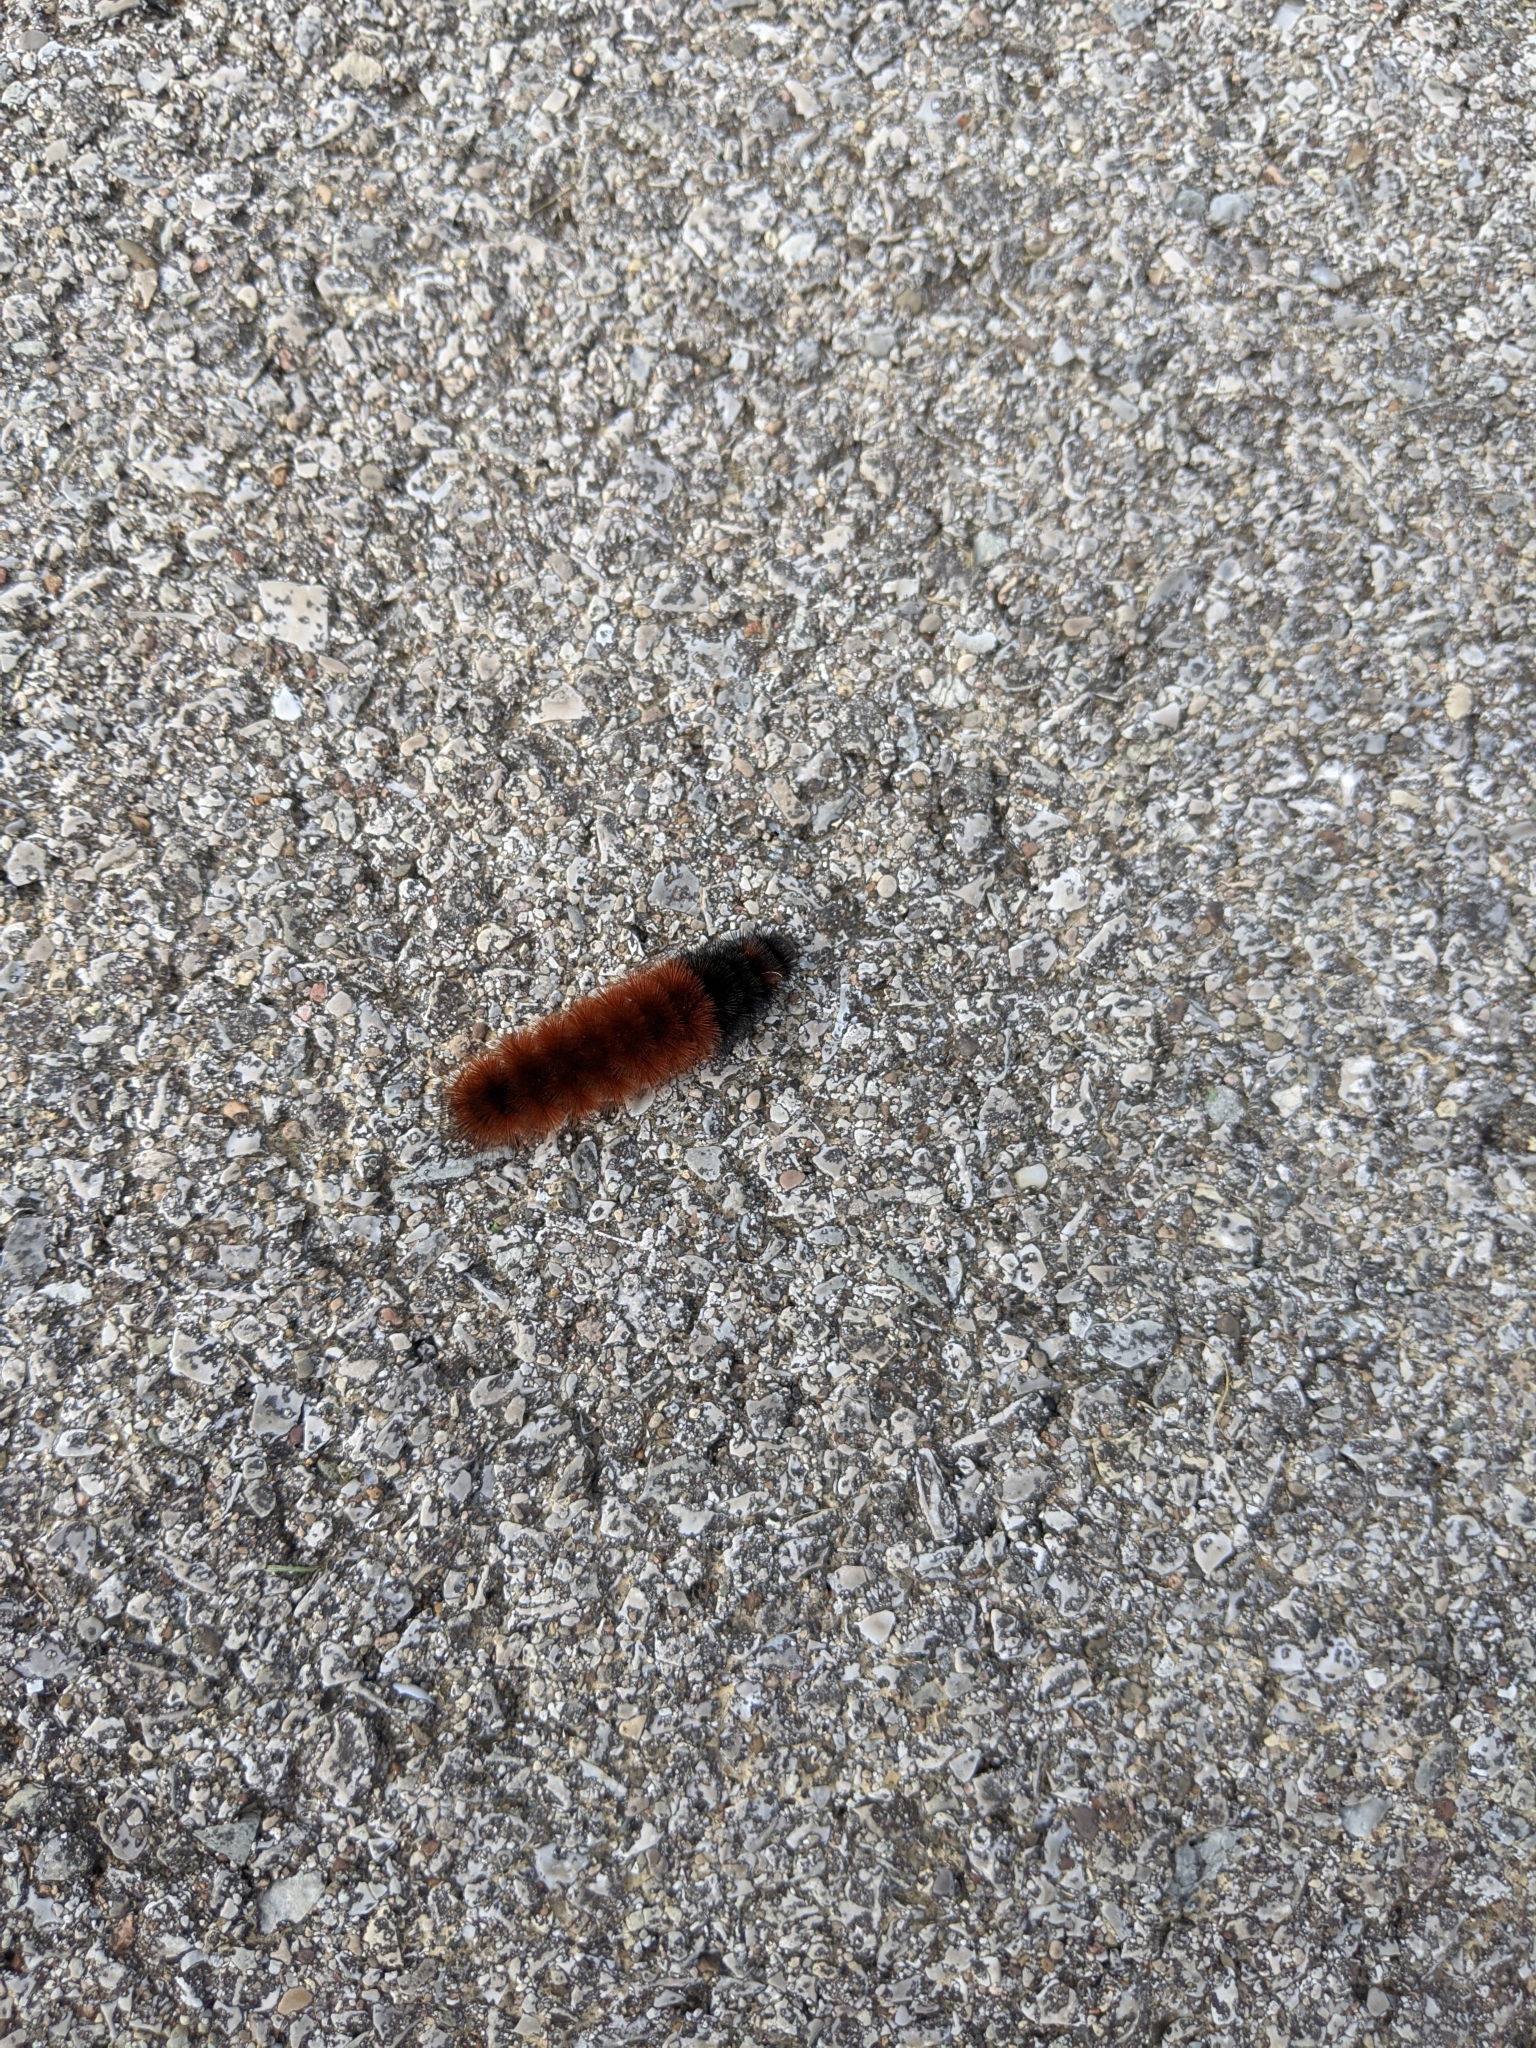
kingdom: Animalia
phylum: Arthropoda
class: Insecta
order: Lepidoptera
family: Erebidae
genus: Pyrrharctia
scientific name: Pyrrharctia isabella
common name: Isabella tiger moth
